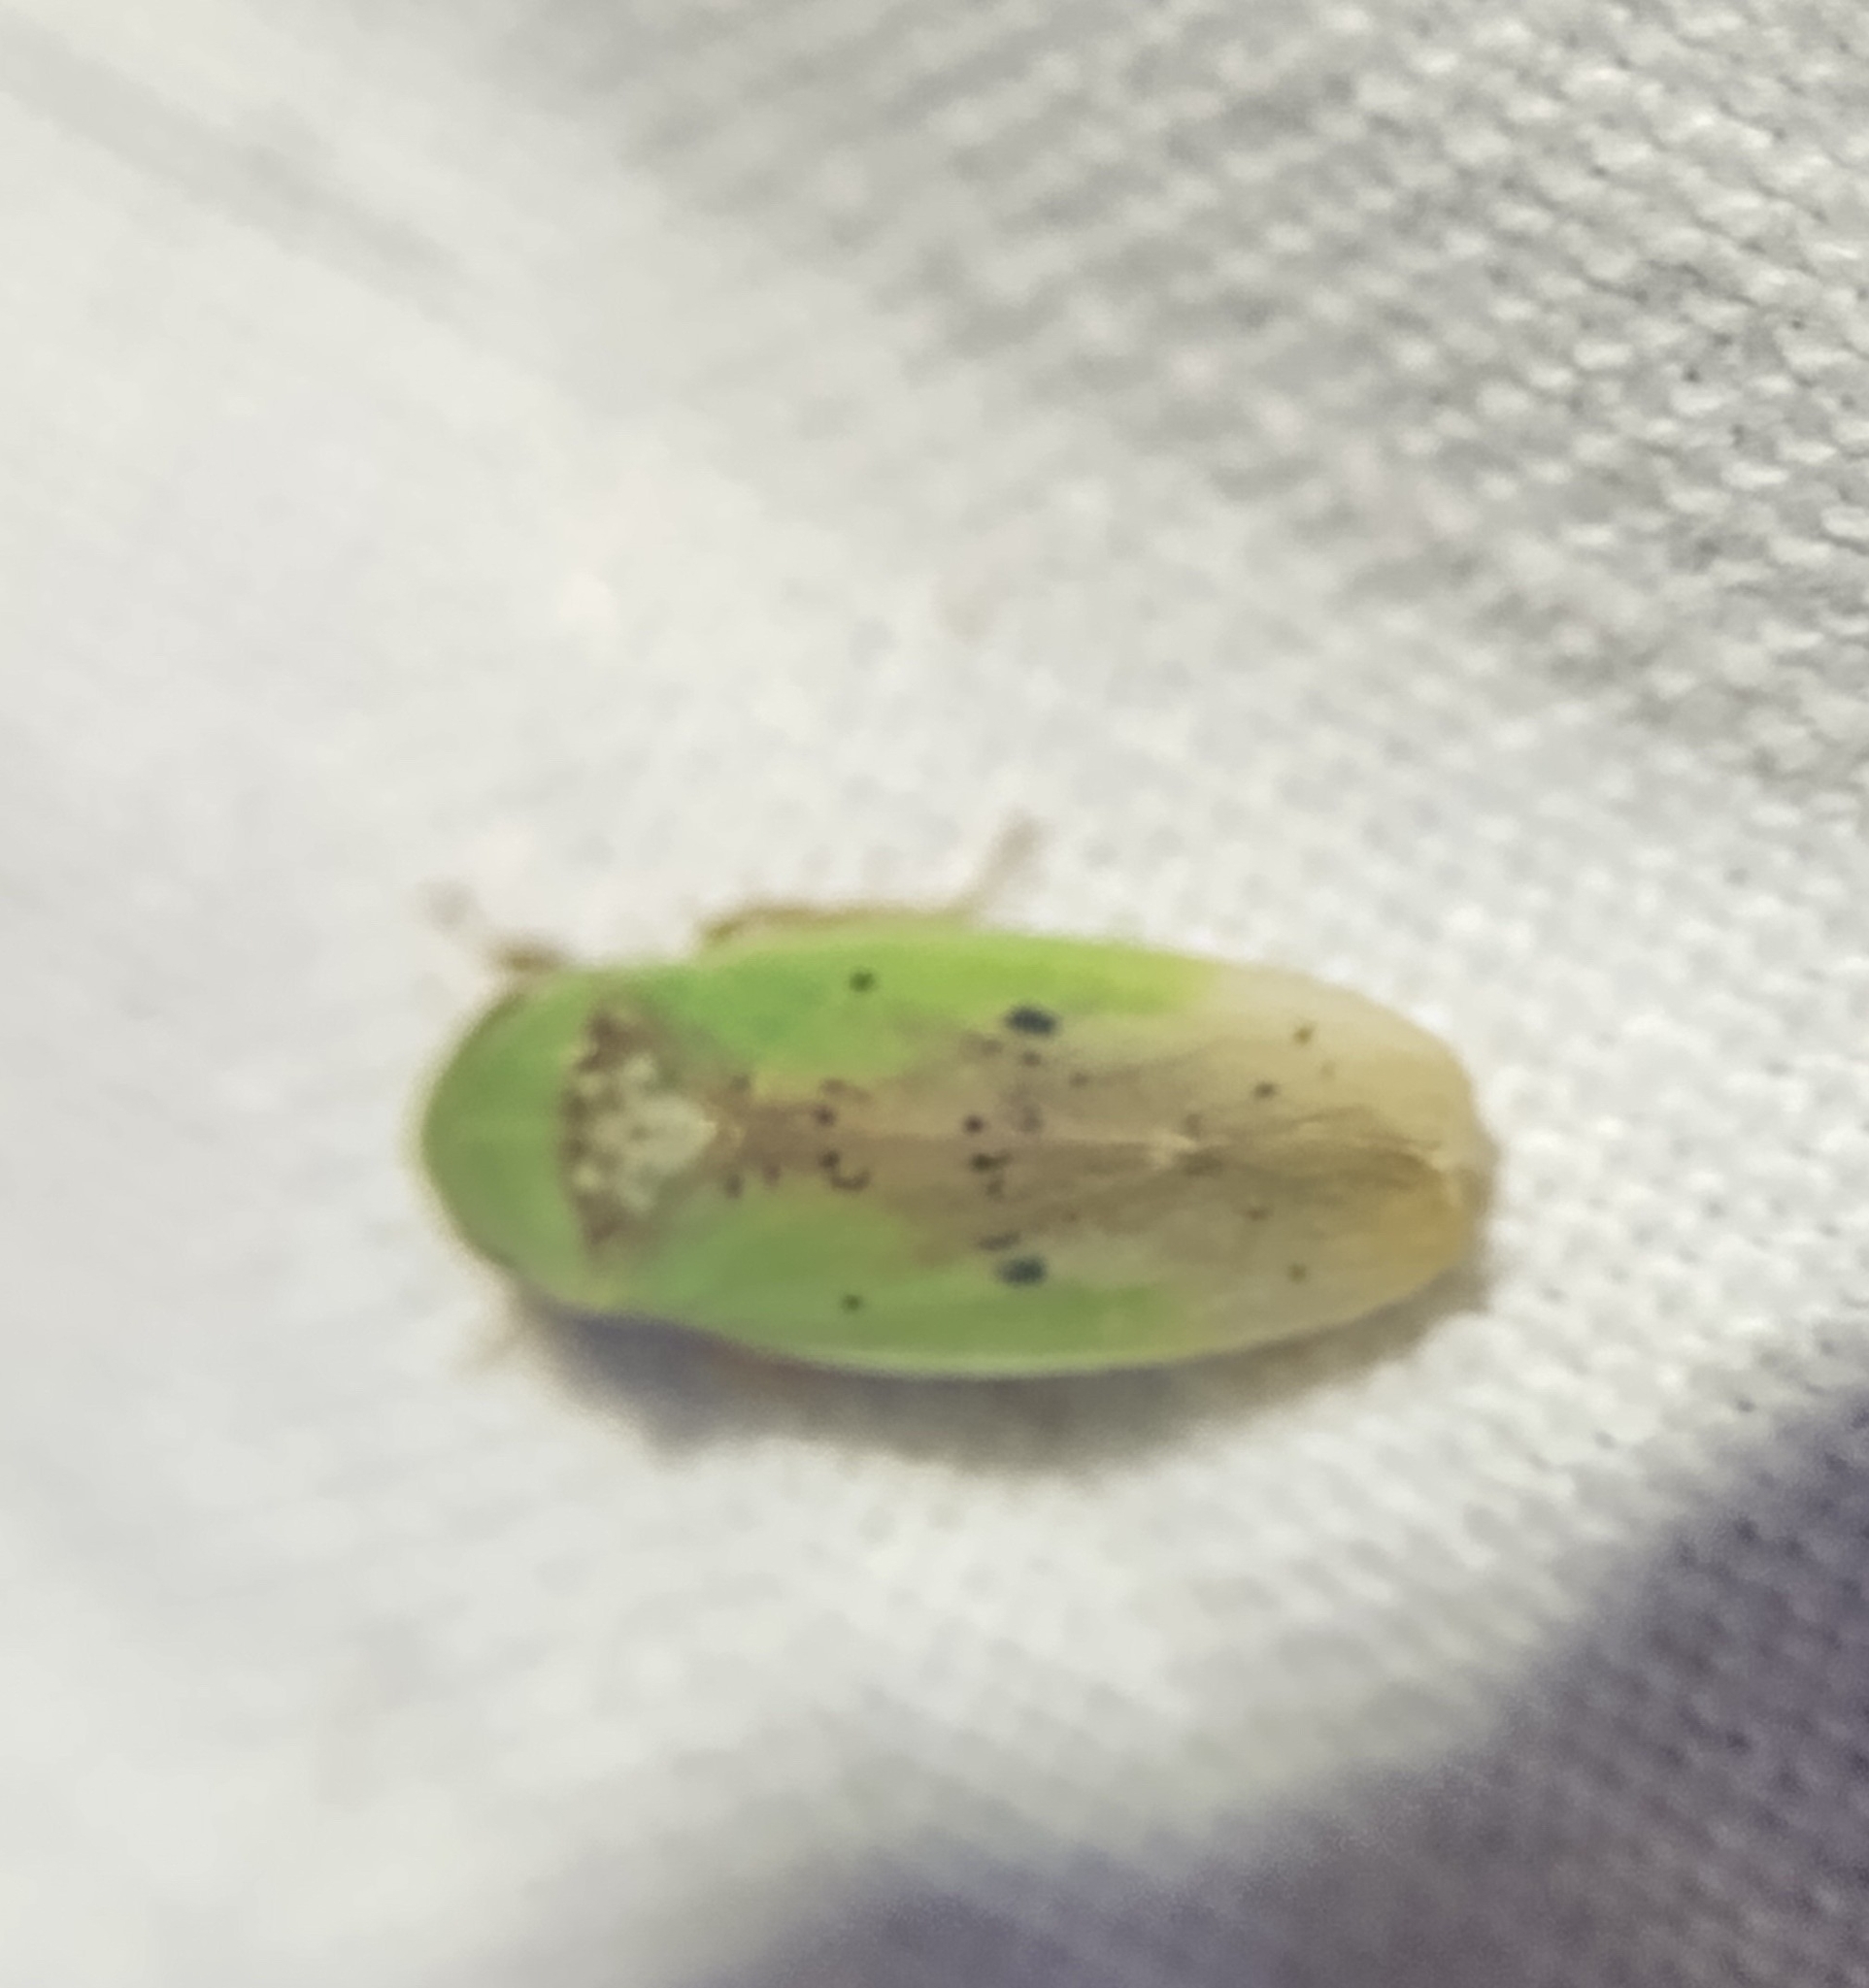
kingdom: Animalia
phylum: Arthropoda
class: Insecta
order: Hemiptera
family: Cicadellidae
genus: Ponana
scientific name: Ponana pectoralis
